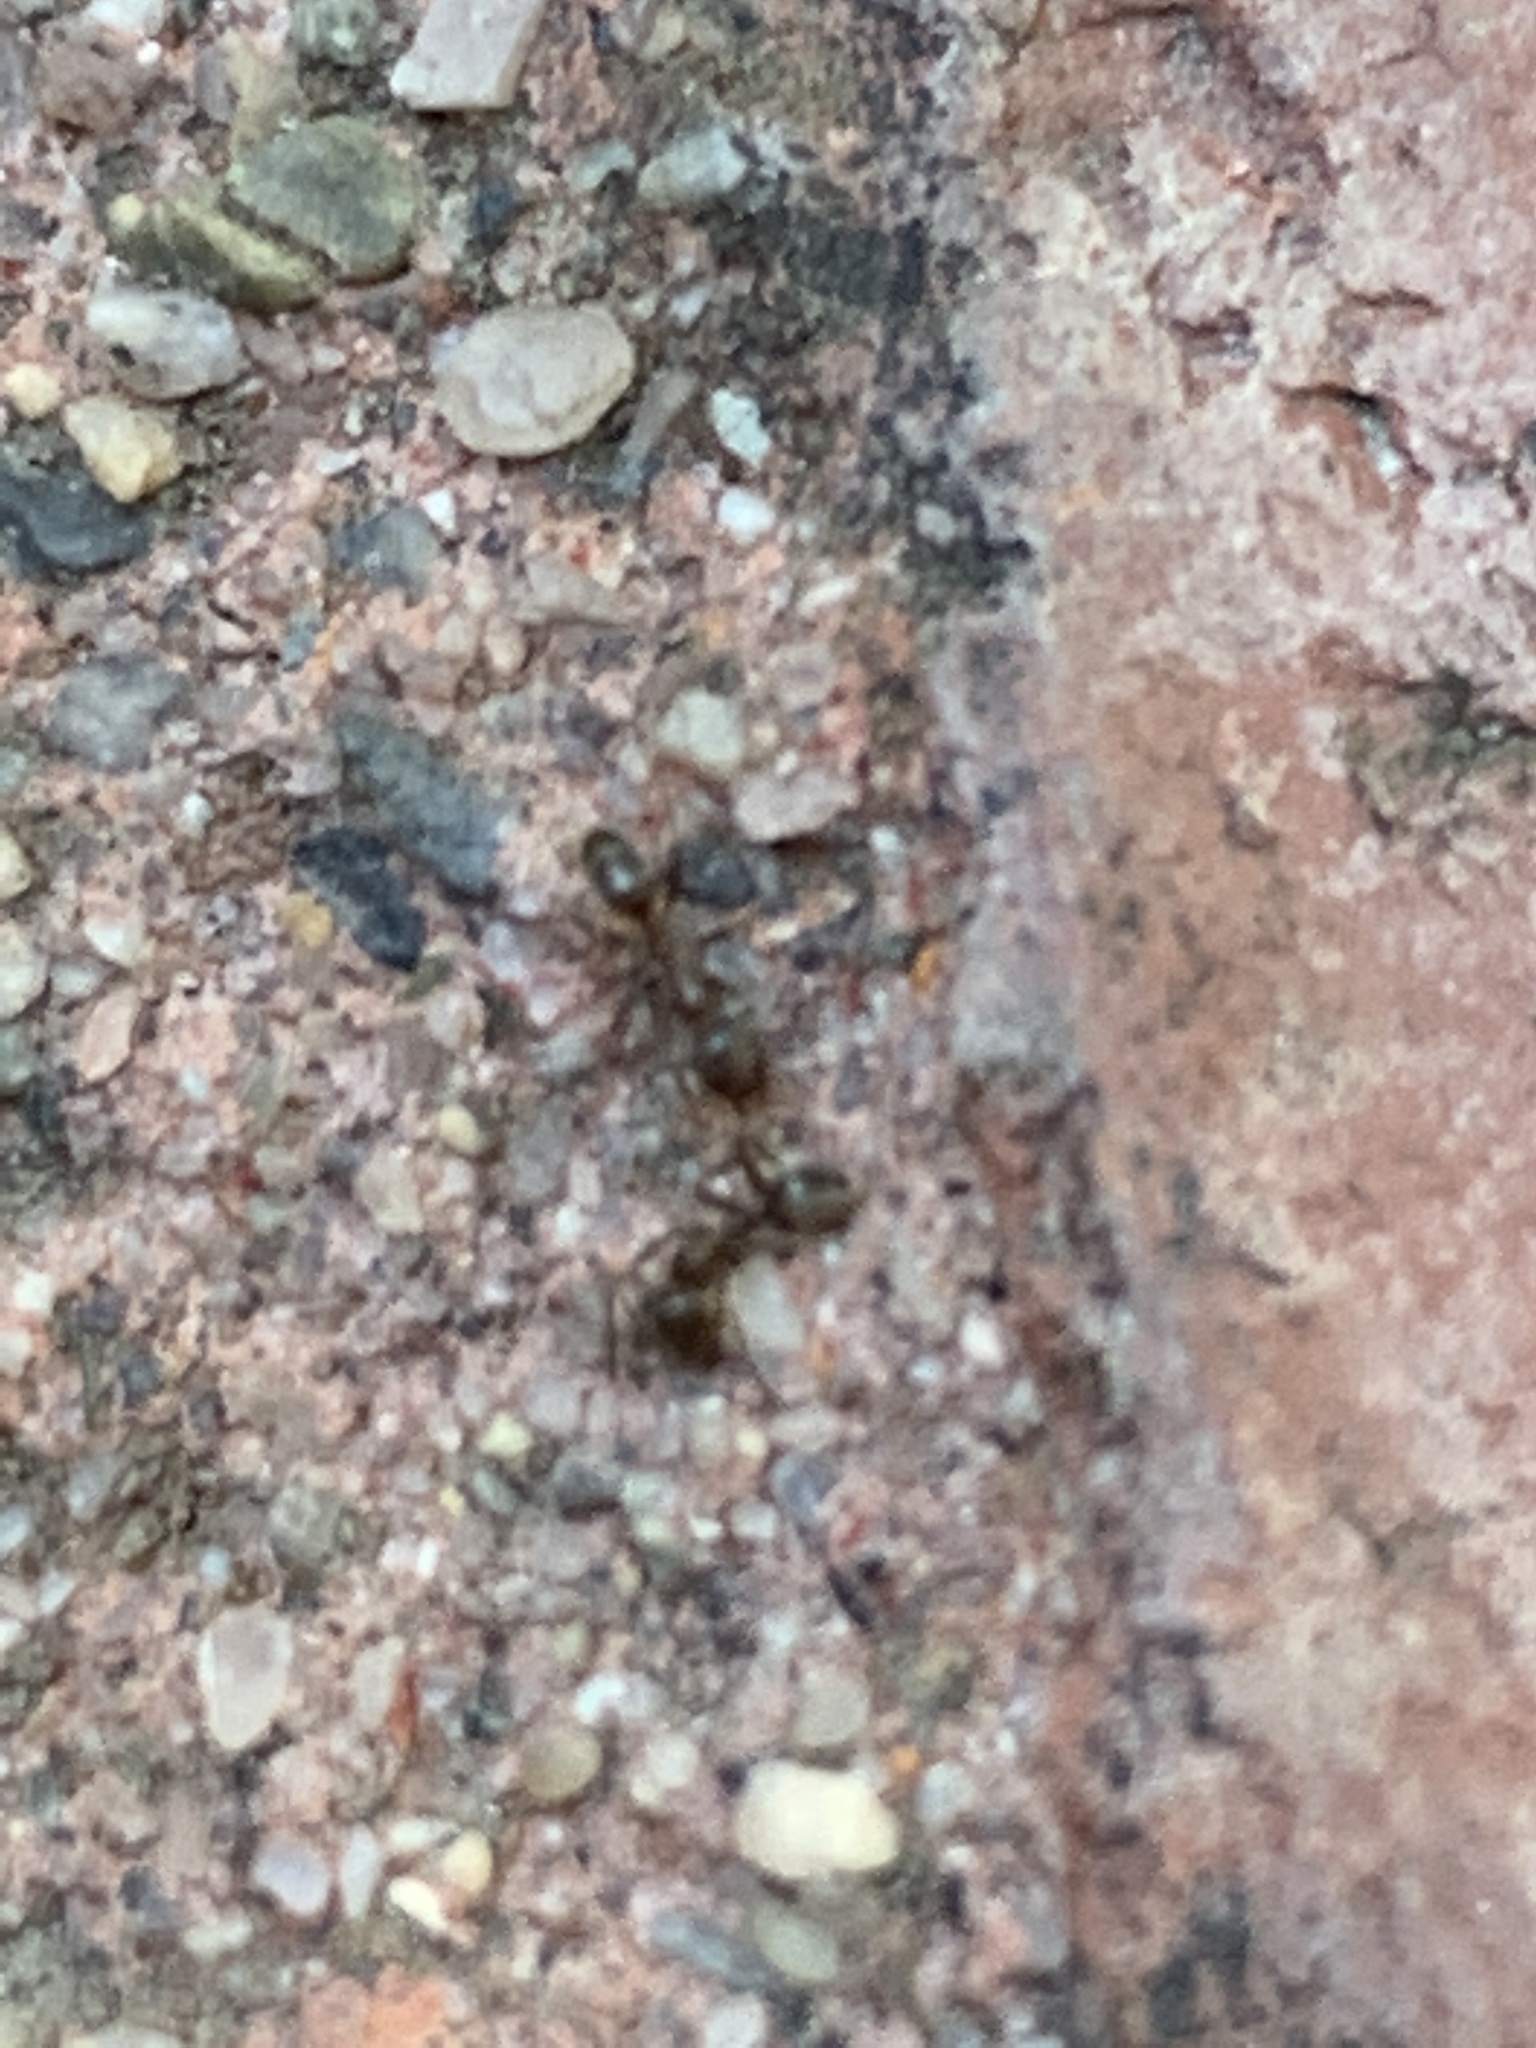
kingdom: Animalia
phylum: Arthropoda
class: Insecta
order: Hymenoptera
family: Formicidae
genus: Linepithema
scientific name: Linepithema humile
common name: Argentine ant
